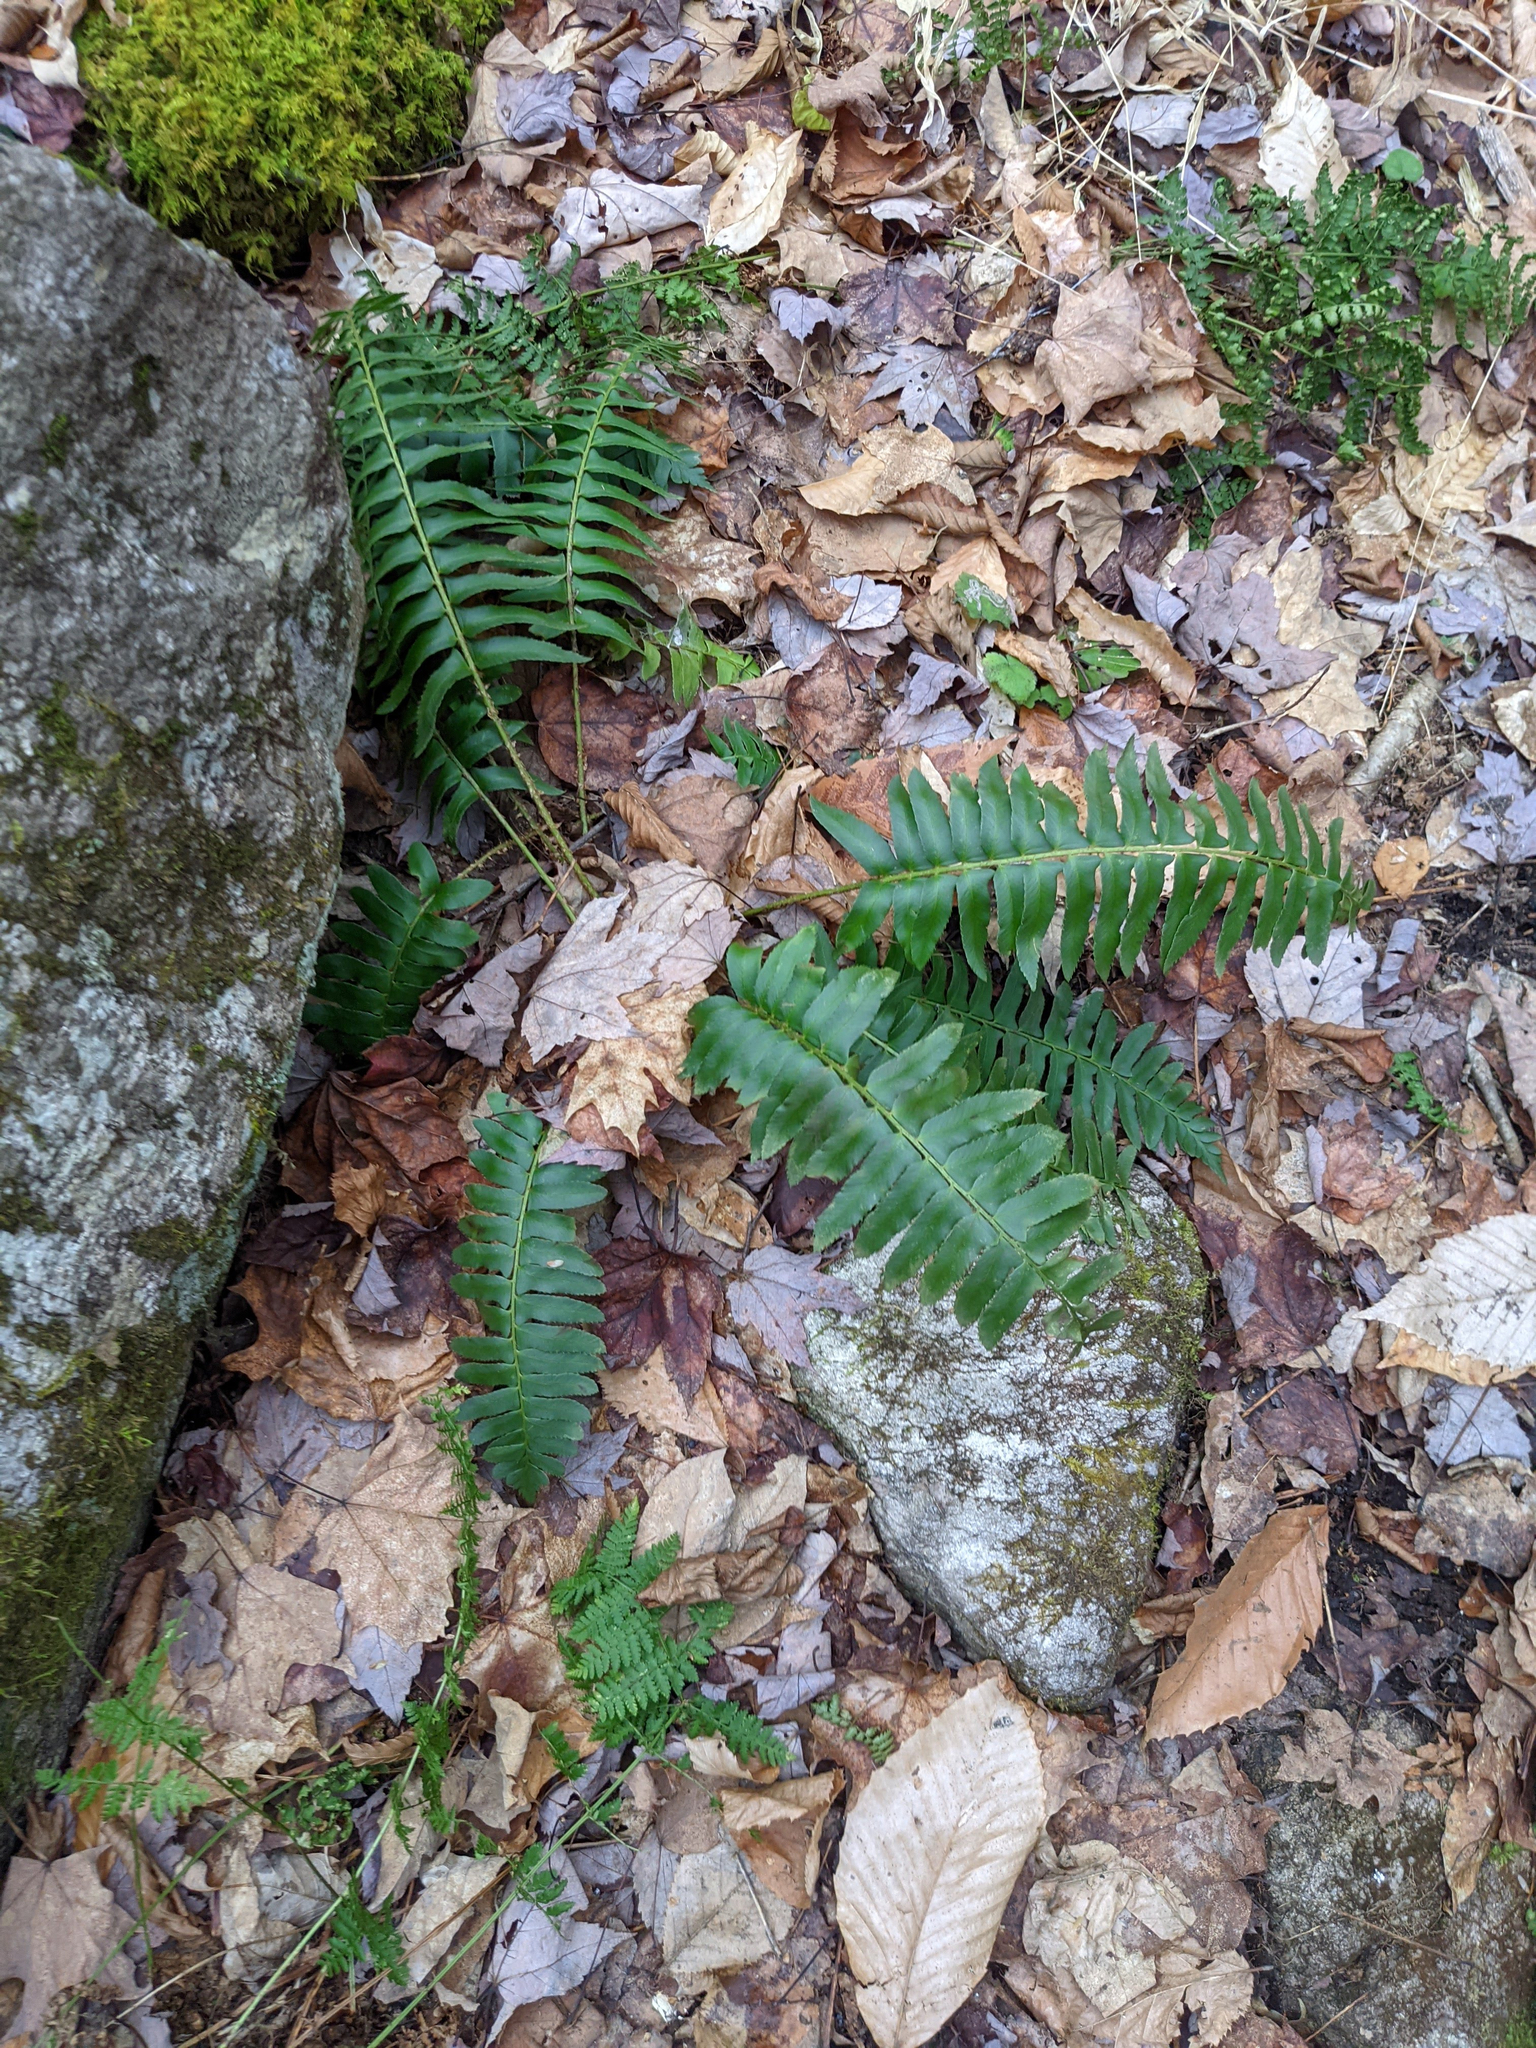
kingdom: Plantae
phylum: Tracheophyta
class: Polypodiopsida
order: Polypodiales
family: Dryopteridaceae
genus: Polystichum
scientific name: Polystichum acrostichoides
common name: Christmas fern
